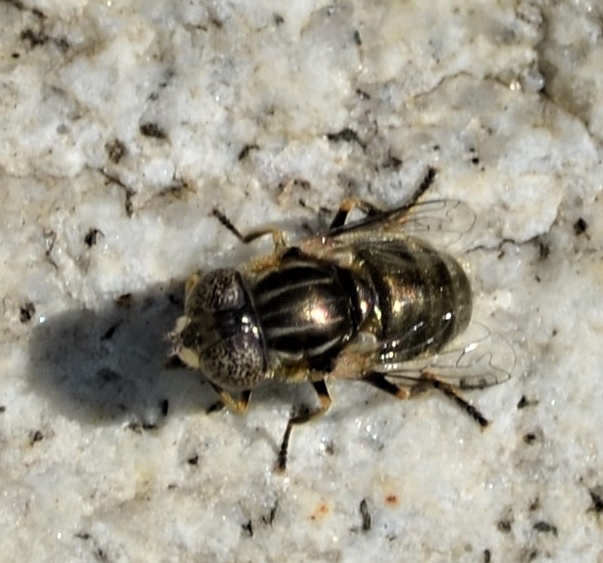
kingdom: Animalia
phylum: Arthropoda
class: Insecta
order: Diptera
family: Syrphidae
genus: Eristalinus
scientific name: Eristalinus aeneus
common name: Syrphid fly
